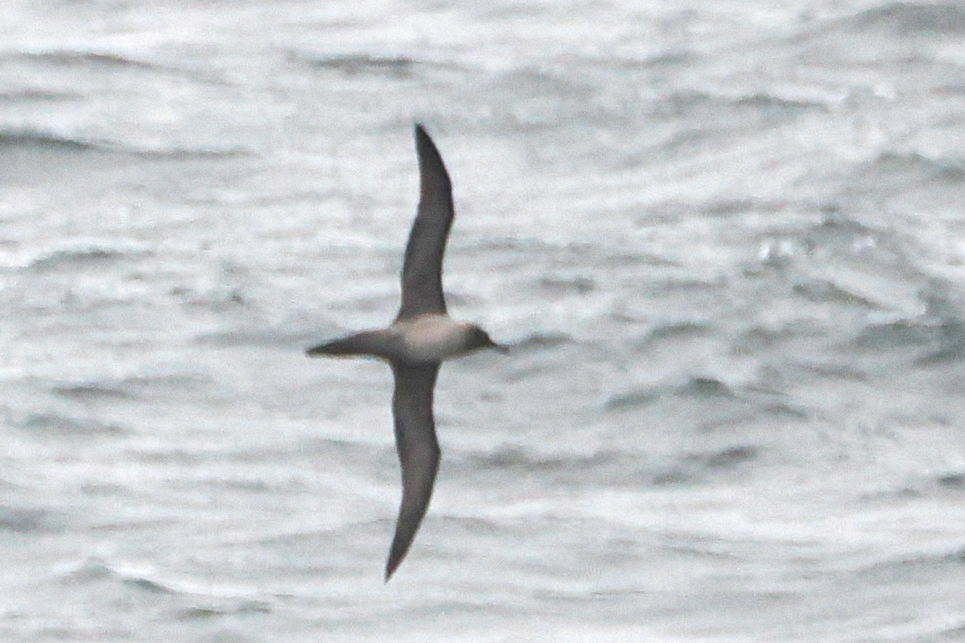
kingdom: Animalia
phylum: Chordata
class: Aves
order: Procellariiformes
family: Diomedeidae
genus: Phoebetria
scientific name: Phoebetria palpebrata
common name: Light-mantled albatross
